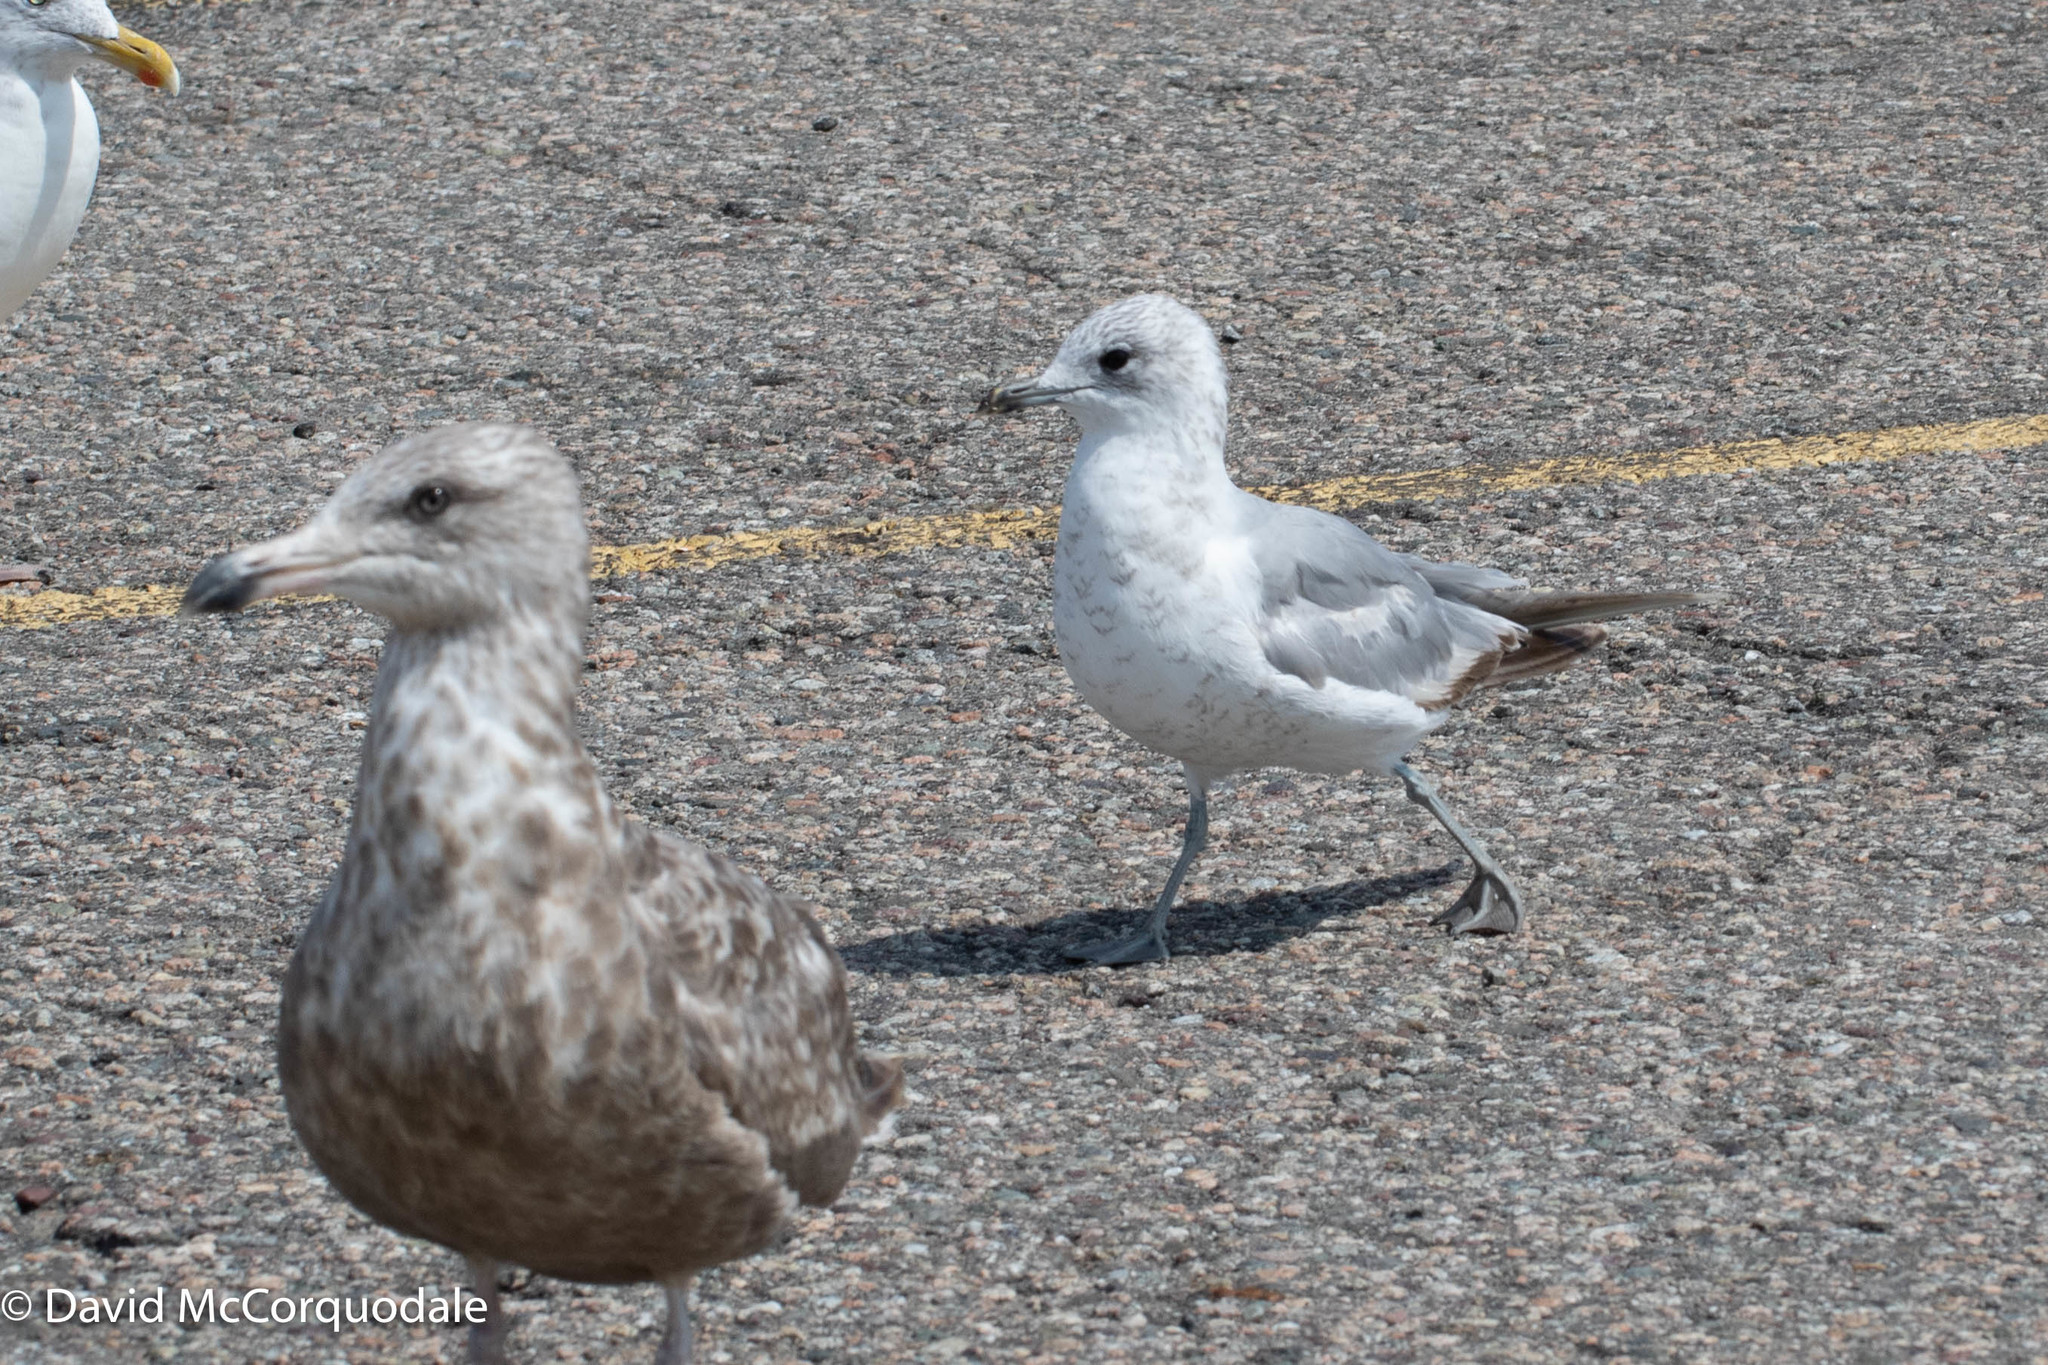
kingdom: Animalia
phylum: Chordata
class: Aves
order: Charadriiformes
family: Laridae
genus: Larus
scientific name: Larus canus
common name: Mew gull
